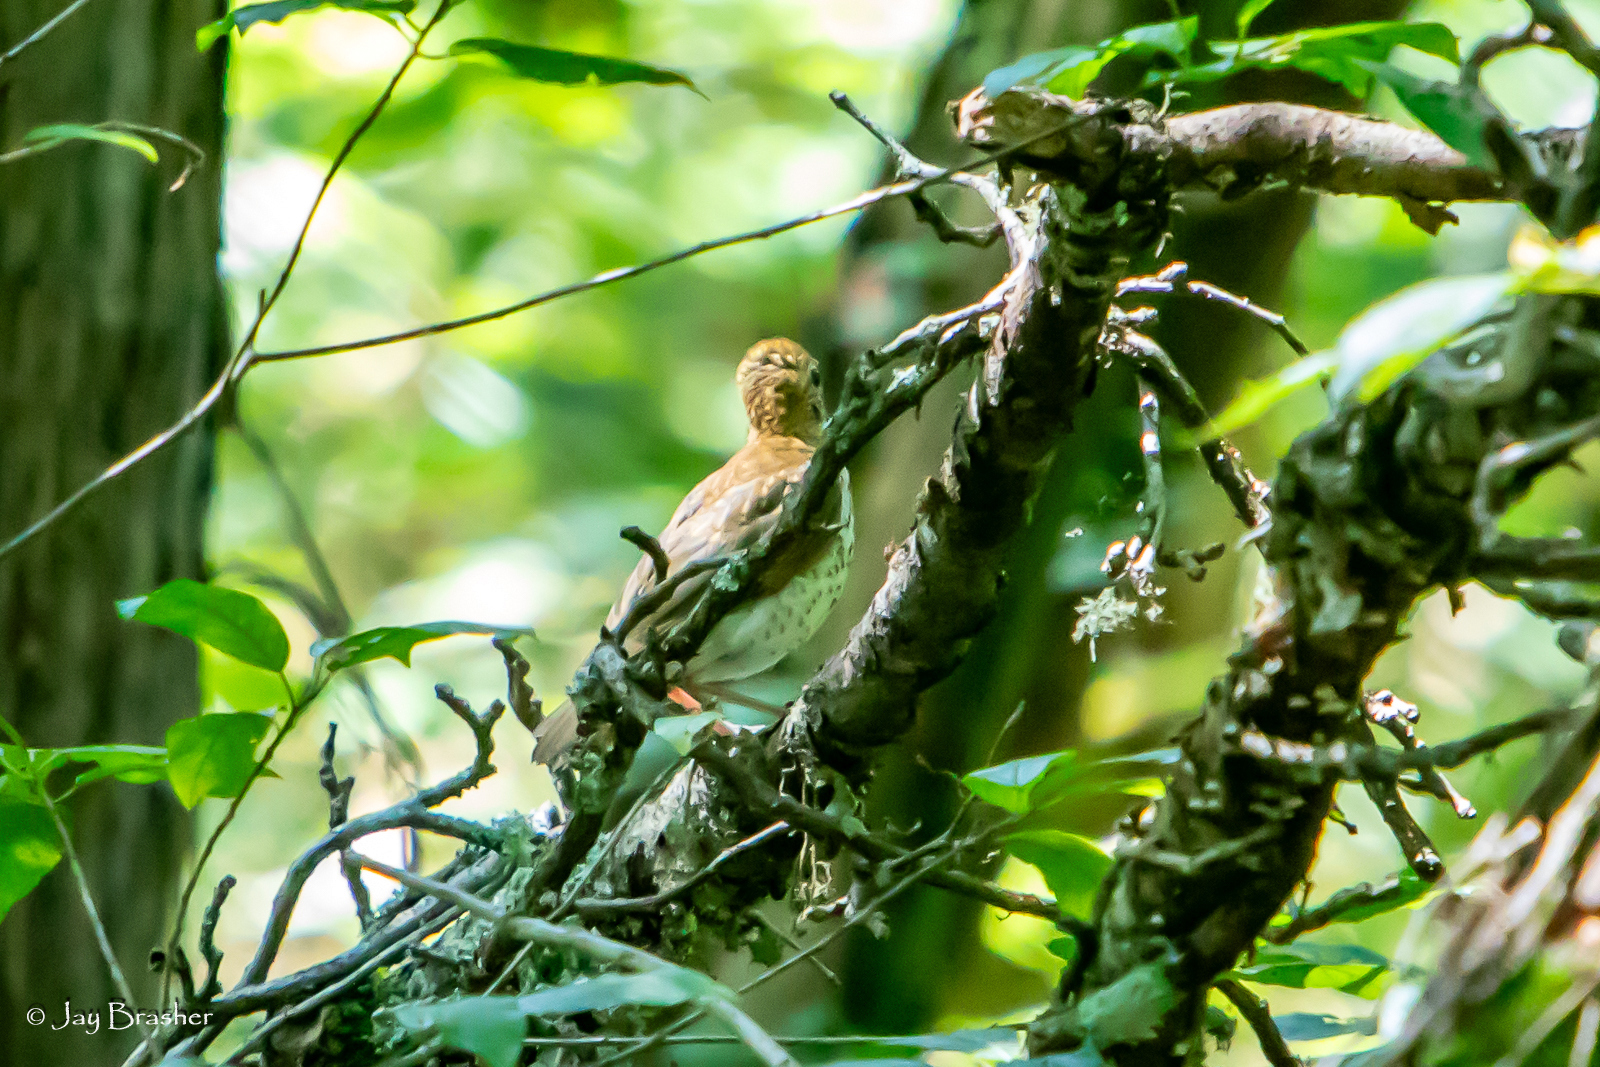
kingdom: Animalia
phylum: Chordata
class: Aves
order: Passeriformes
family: Turdidae
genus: Hylocichla
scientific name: Hylocichla mustelina
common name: Wood thrush
